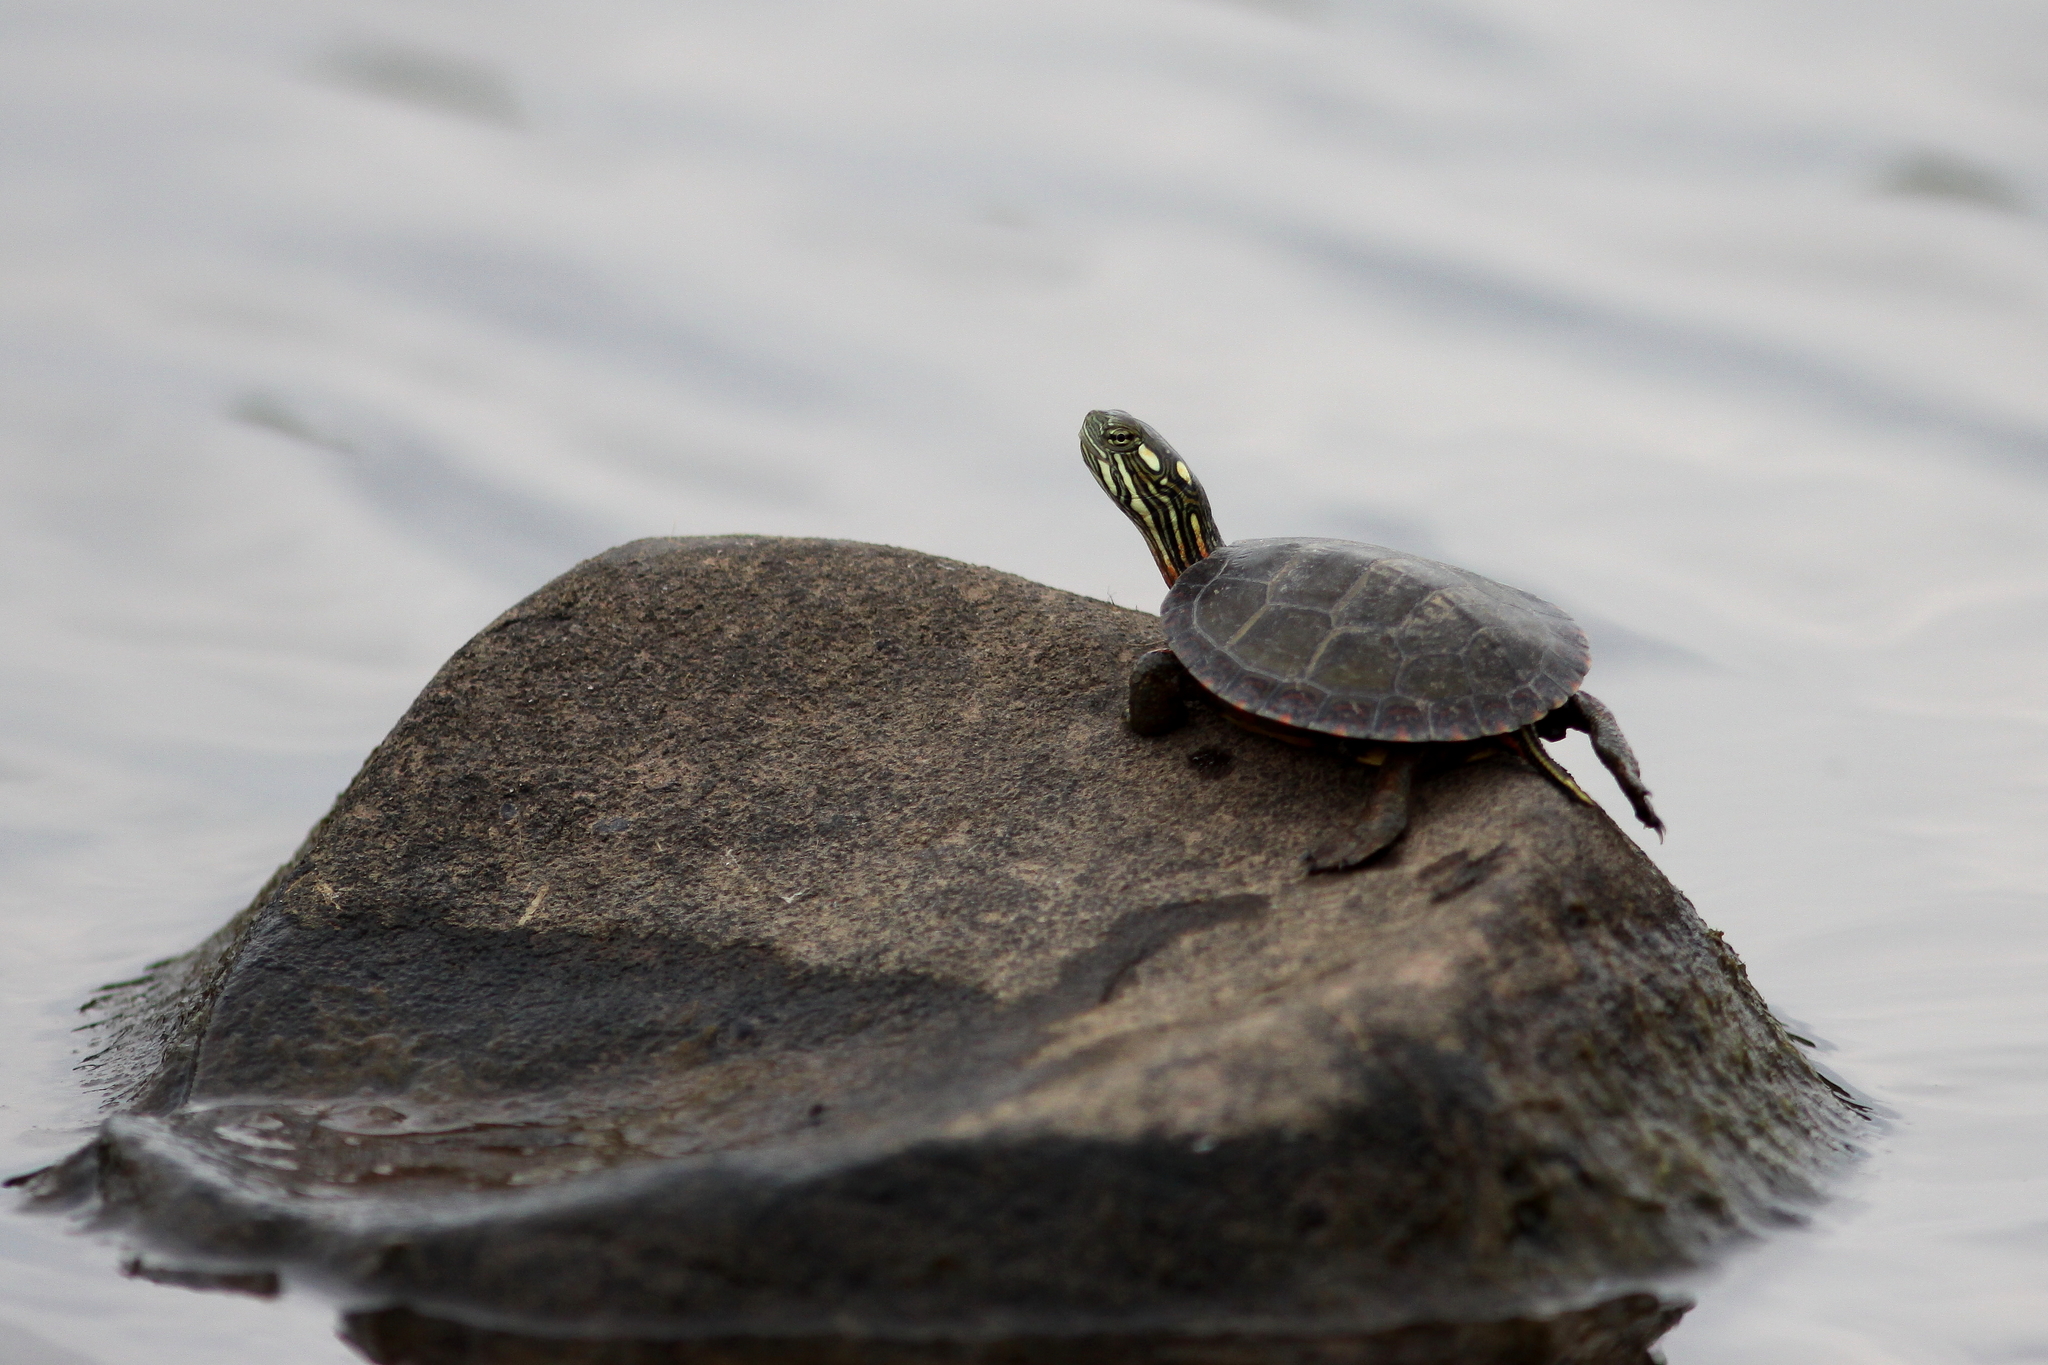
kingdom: Animalia
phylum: Chordata
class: Testudines
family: Emydidae
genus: Chrysemys
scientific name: Chrysemys picta
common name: Painted turtle
